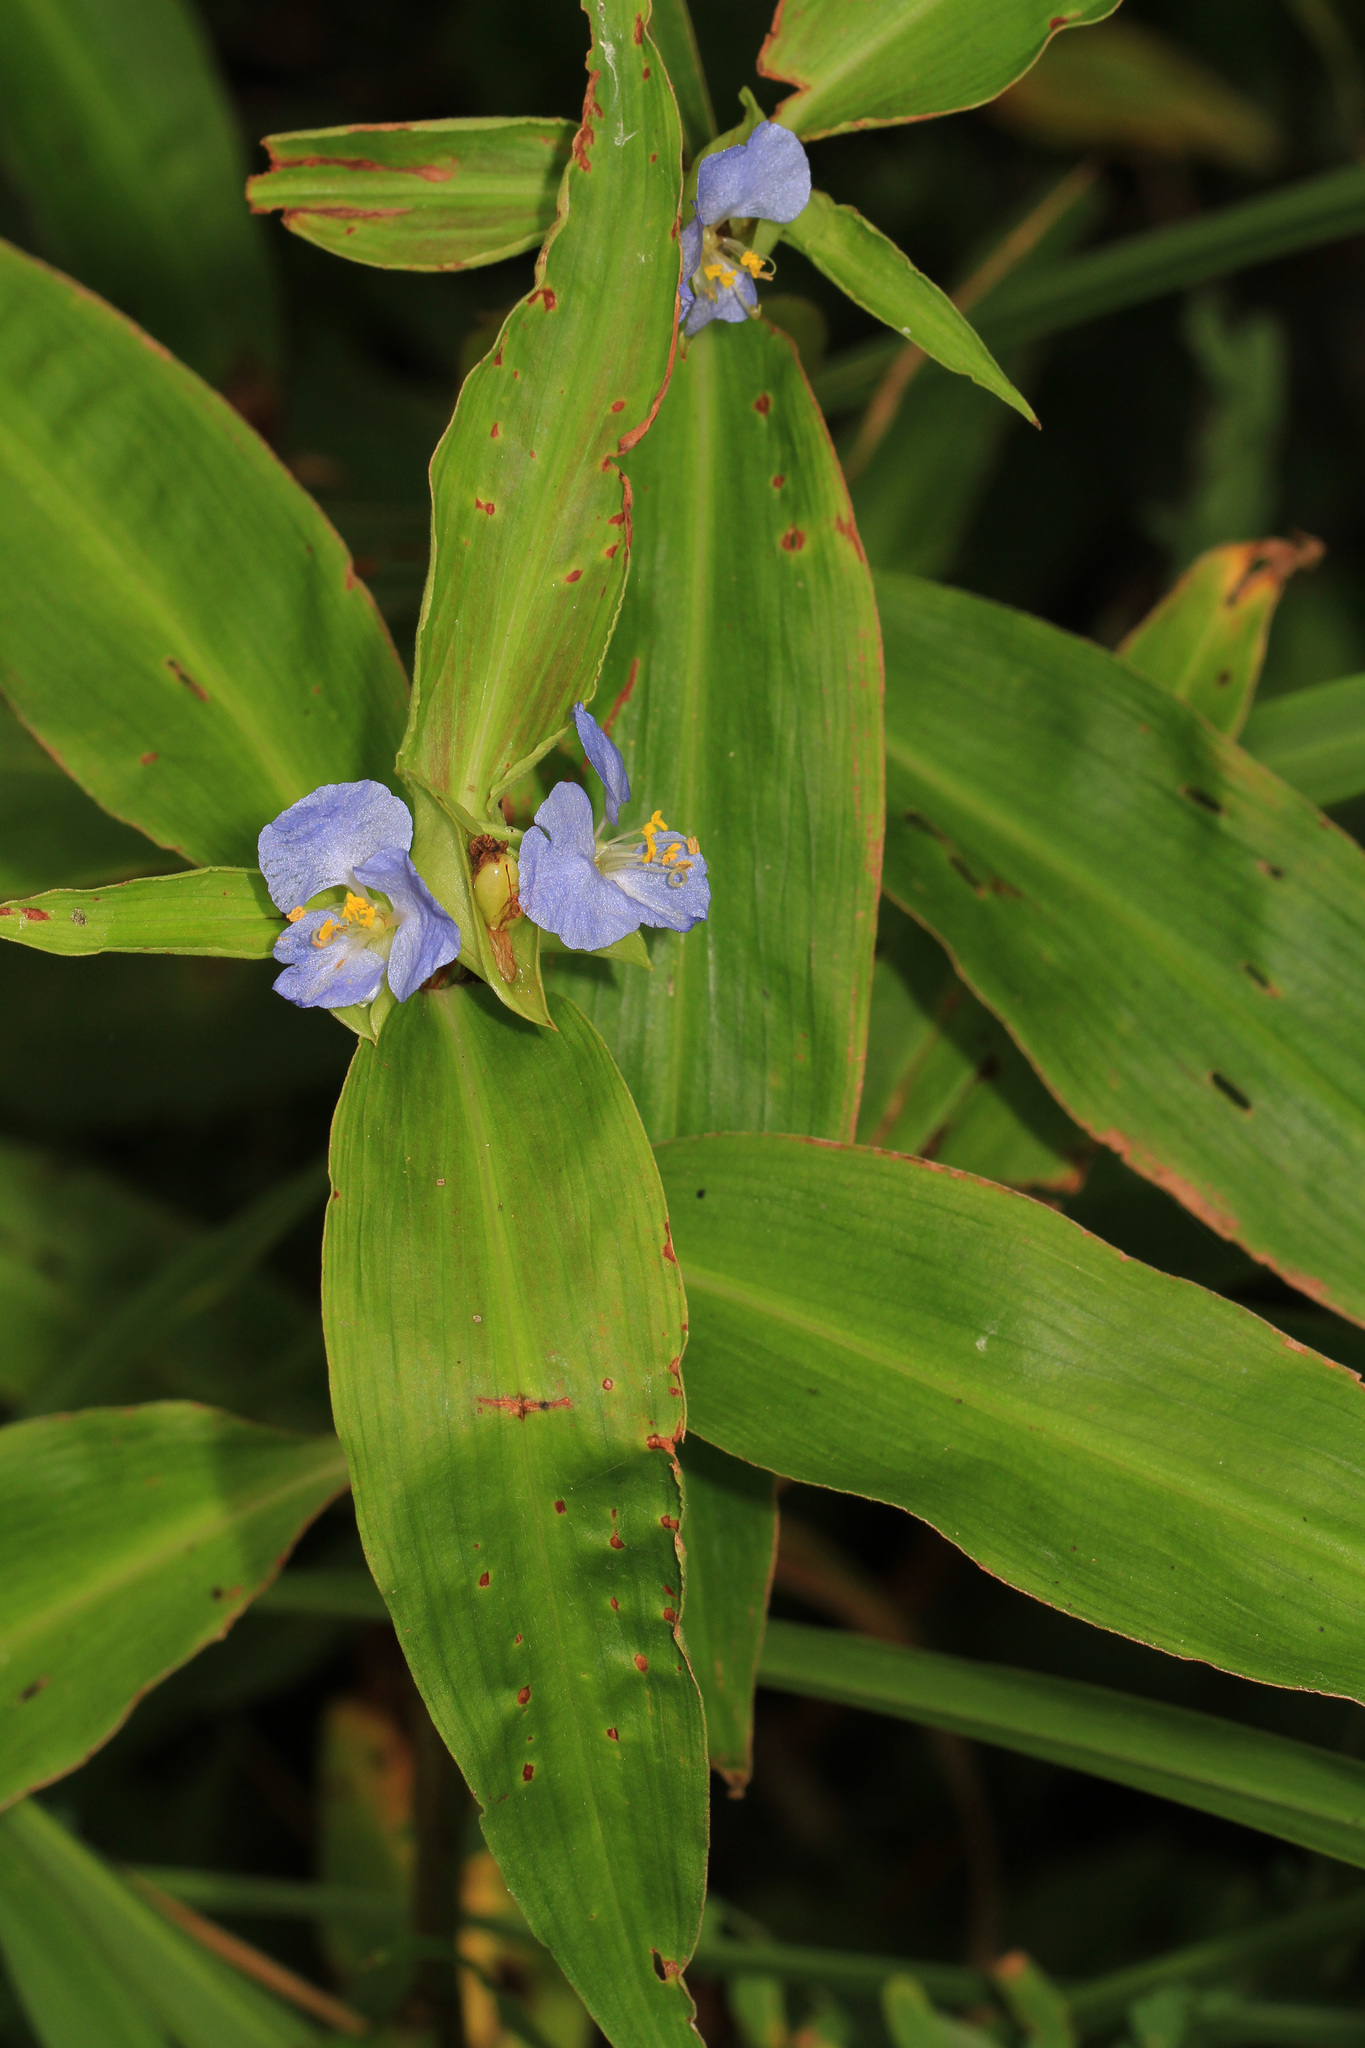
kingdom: Plantae
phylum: Tracheophyta
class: Liliopsida
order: Commelinales
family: Commelinaceae
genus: Commelina
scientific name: Commelina virginica
